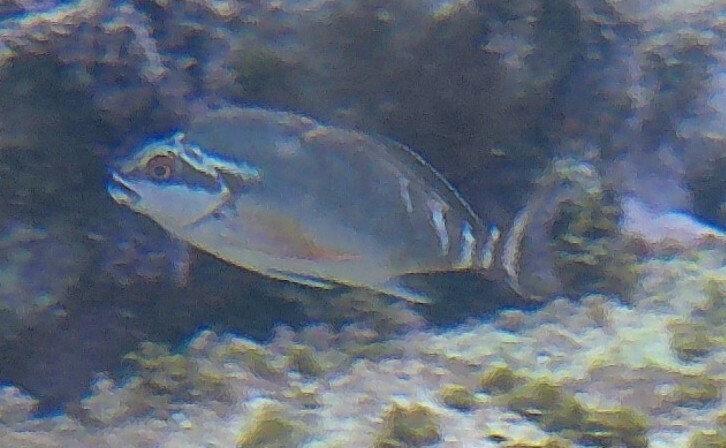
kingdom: Animalia
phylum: Chordata
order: Perciformes
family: Latridae
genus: Morwong
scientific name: Morwong fuscus
